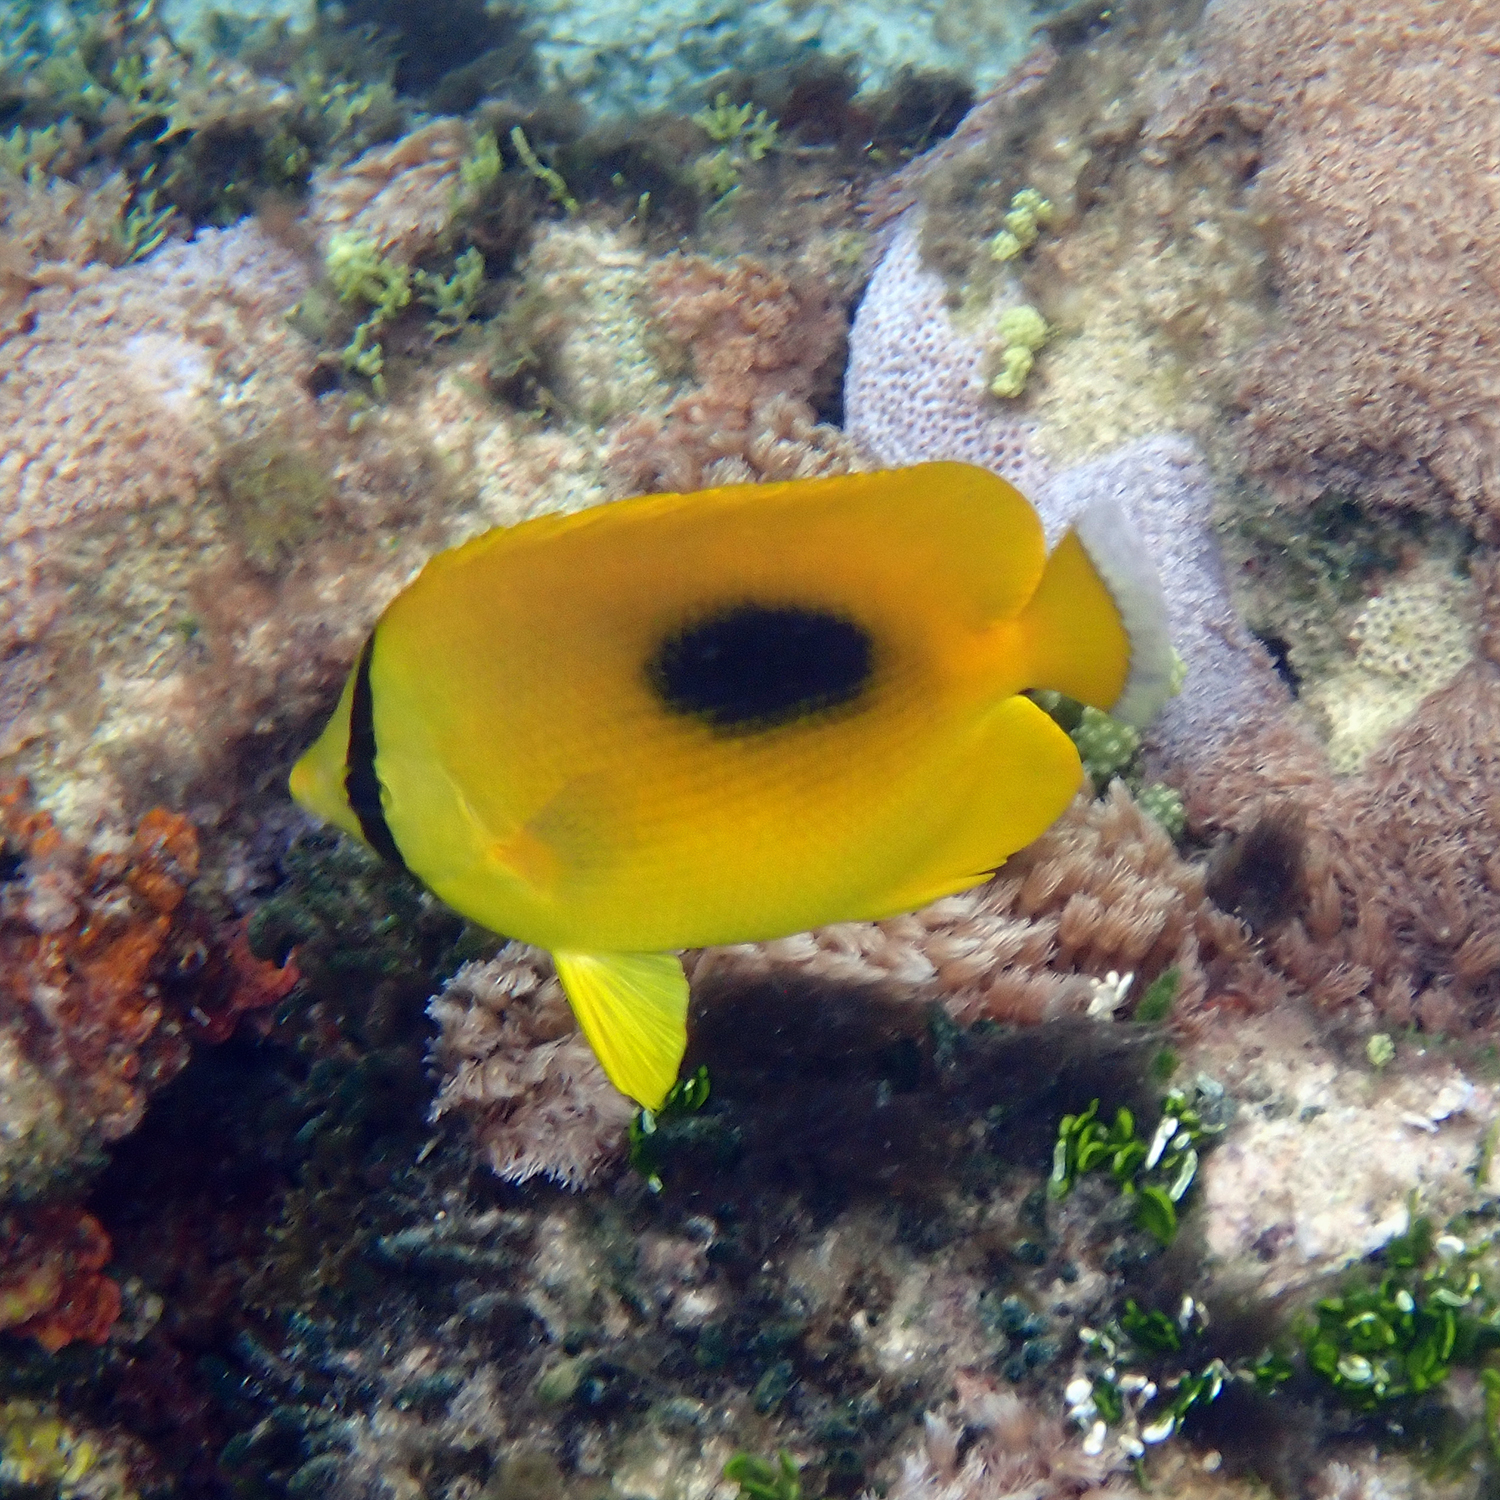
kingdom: Animalia
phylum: Chordata
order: Perciformes
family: Chaetodontidae
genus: Chaetodon
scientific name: Chaetodon speculum
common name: Mirror butterflyfish
